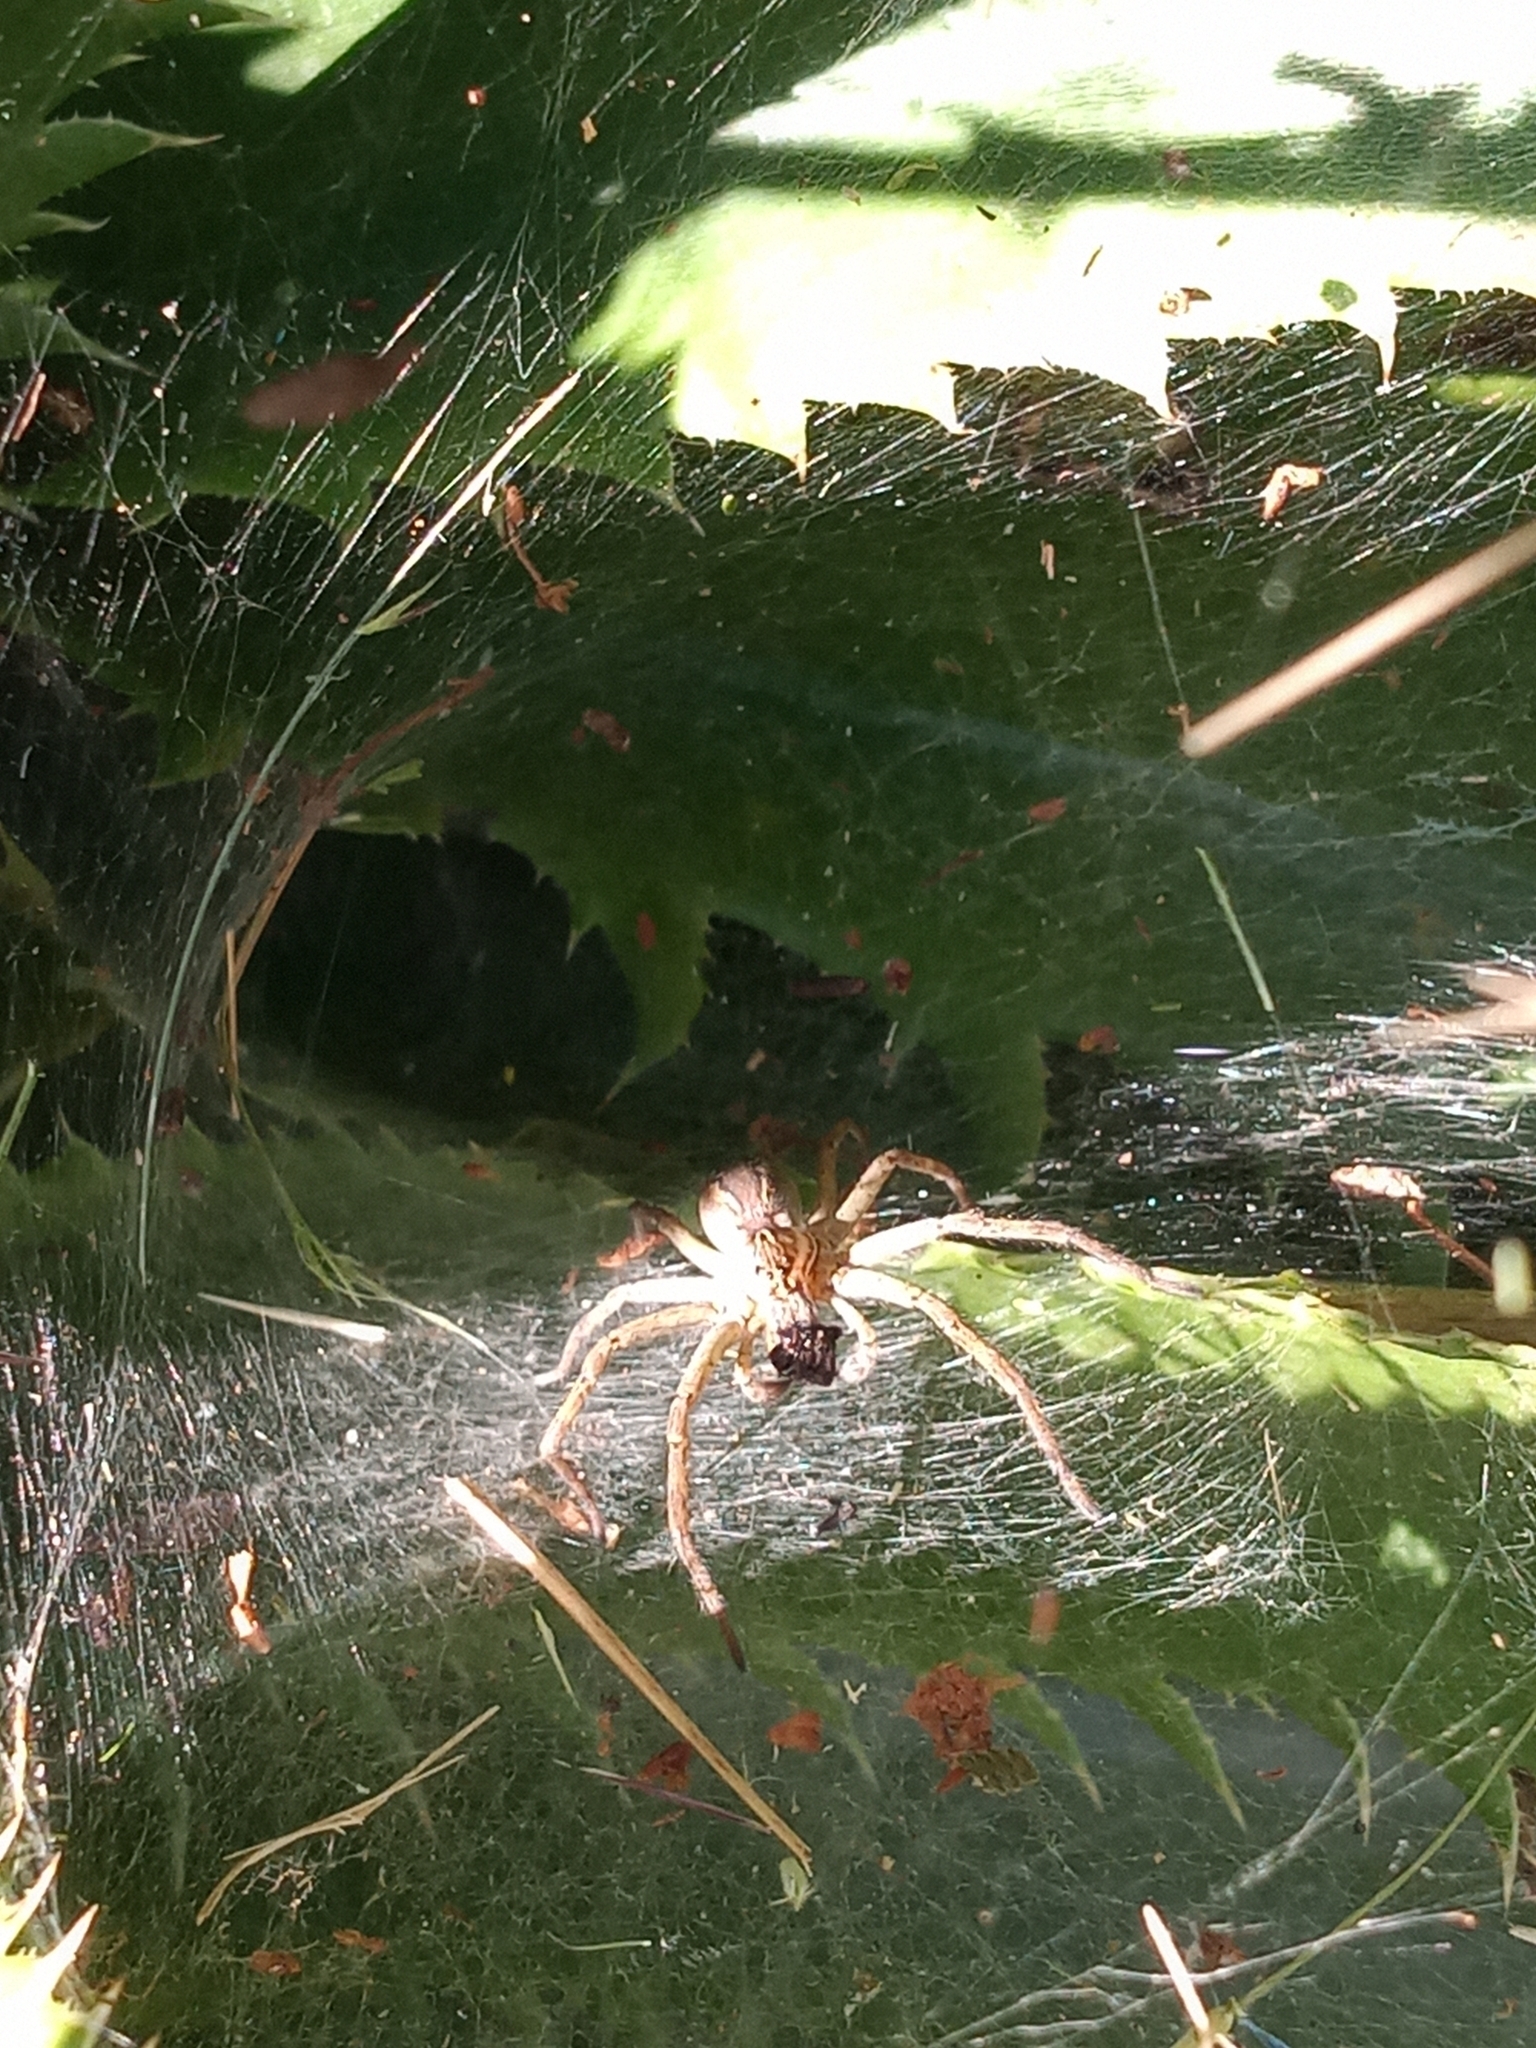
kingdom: Animalia
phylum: Arthropoda
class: Arachnida
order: Araneae
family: Lycosidae
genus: Aglaoctenus
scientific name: Aglaoctenus lagotis
